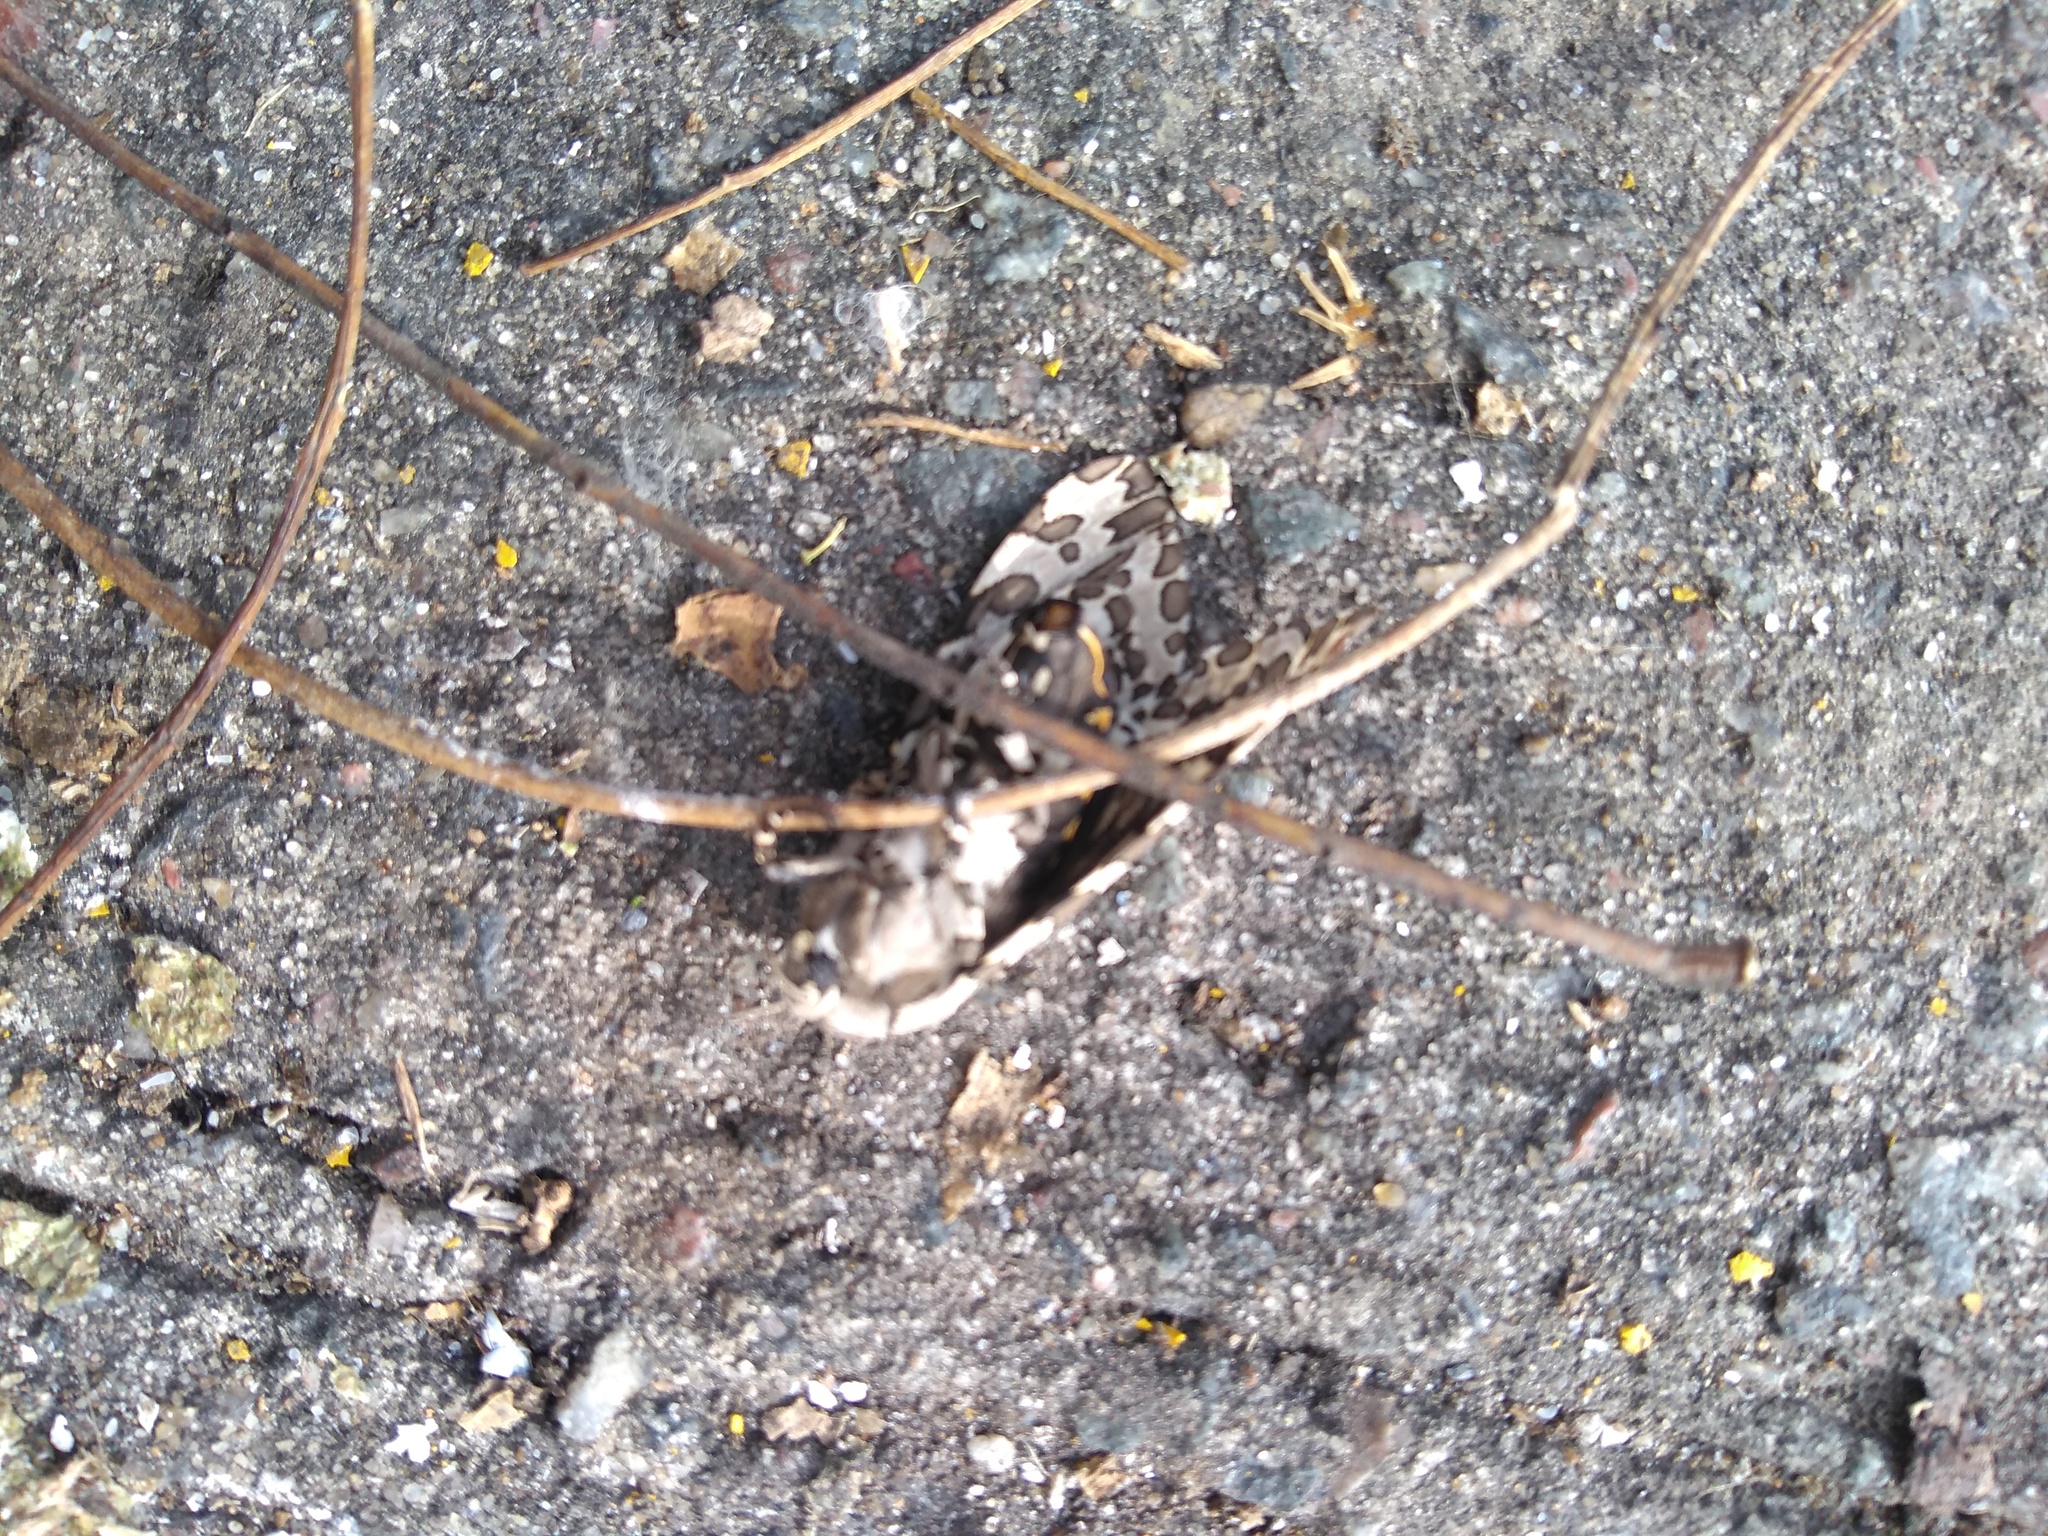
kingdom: Animalia
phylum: Arthropoda
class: Insecta
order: Lepidoptera
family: Erebidae
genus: Hypercompe
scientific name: Hypercompe indecisa
